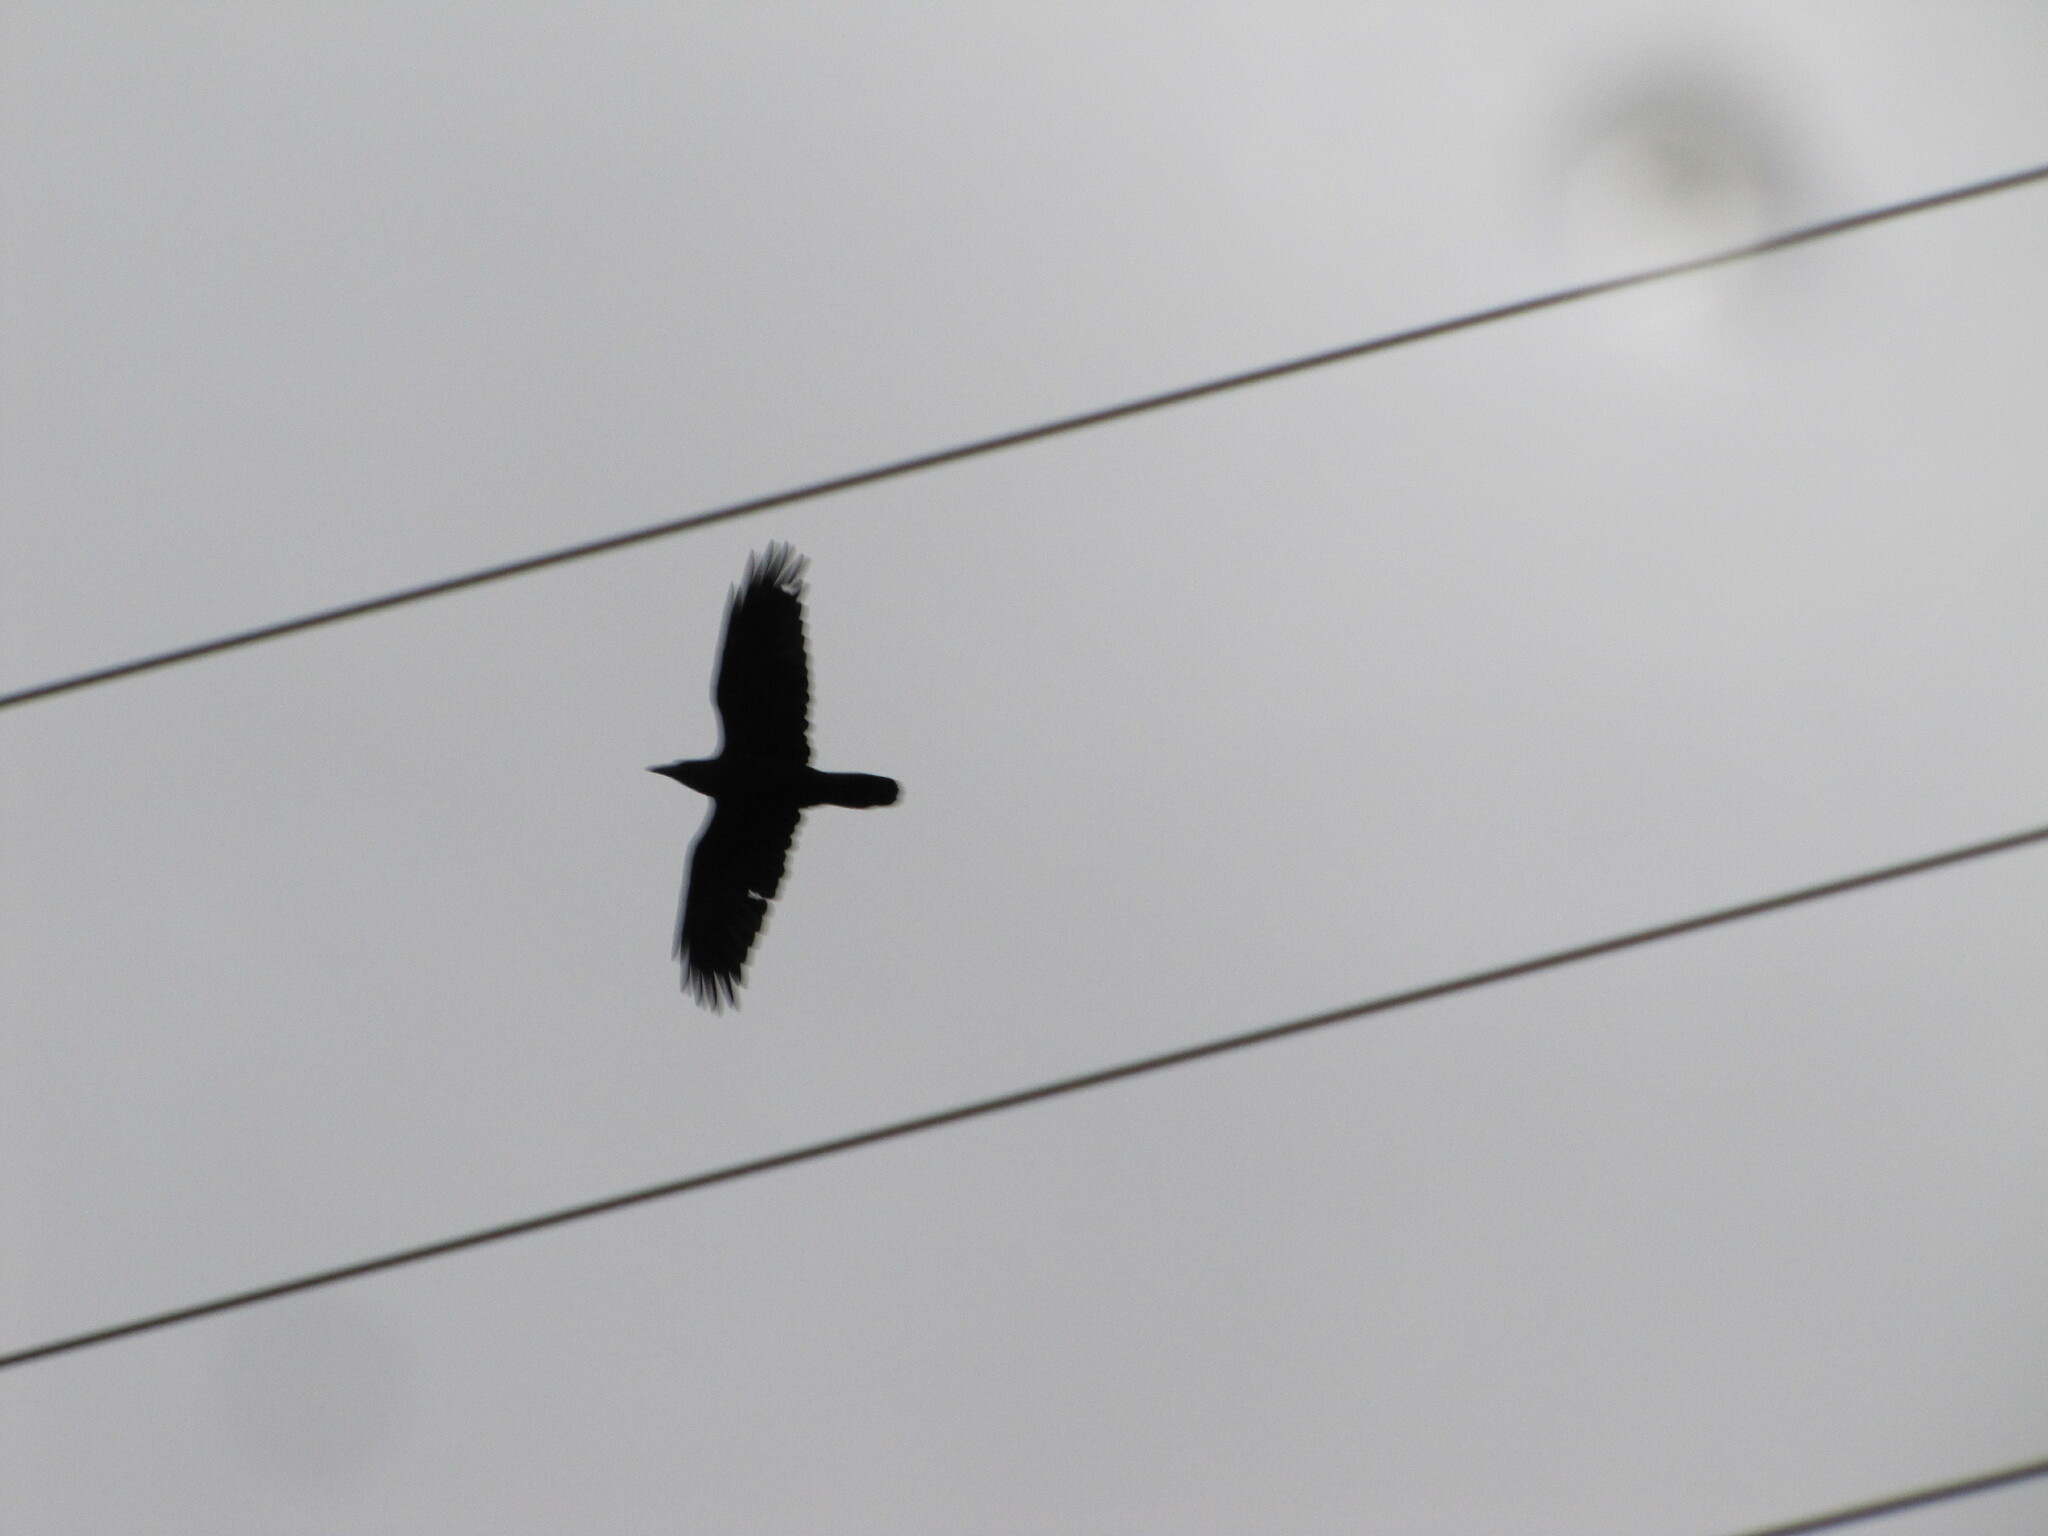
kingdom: Animalia
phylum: Chordata
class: Aves
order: Passeriformes
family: Corvidae
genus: Corvus
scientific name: Corvus corax
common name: Common raven
